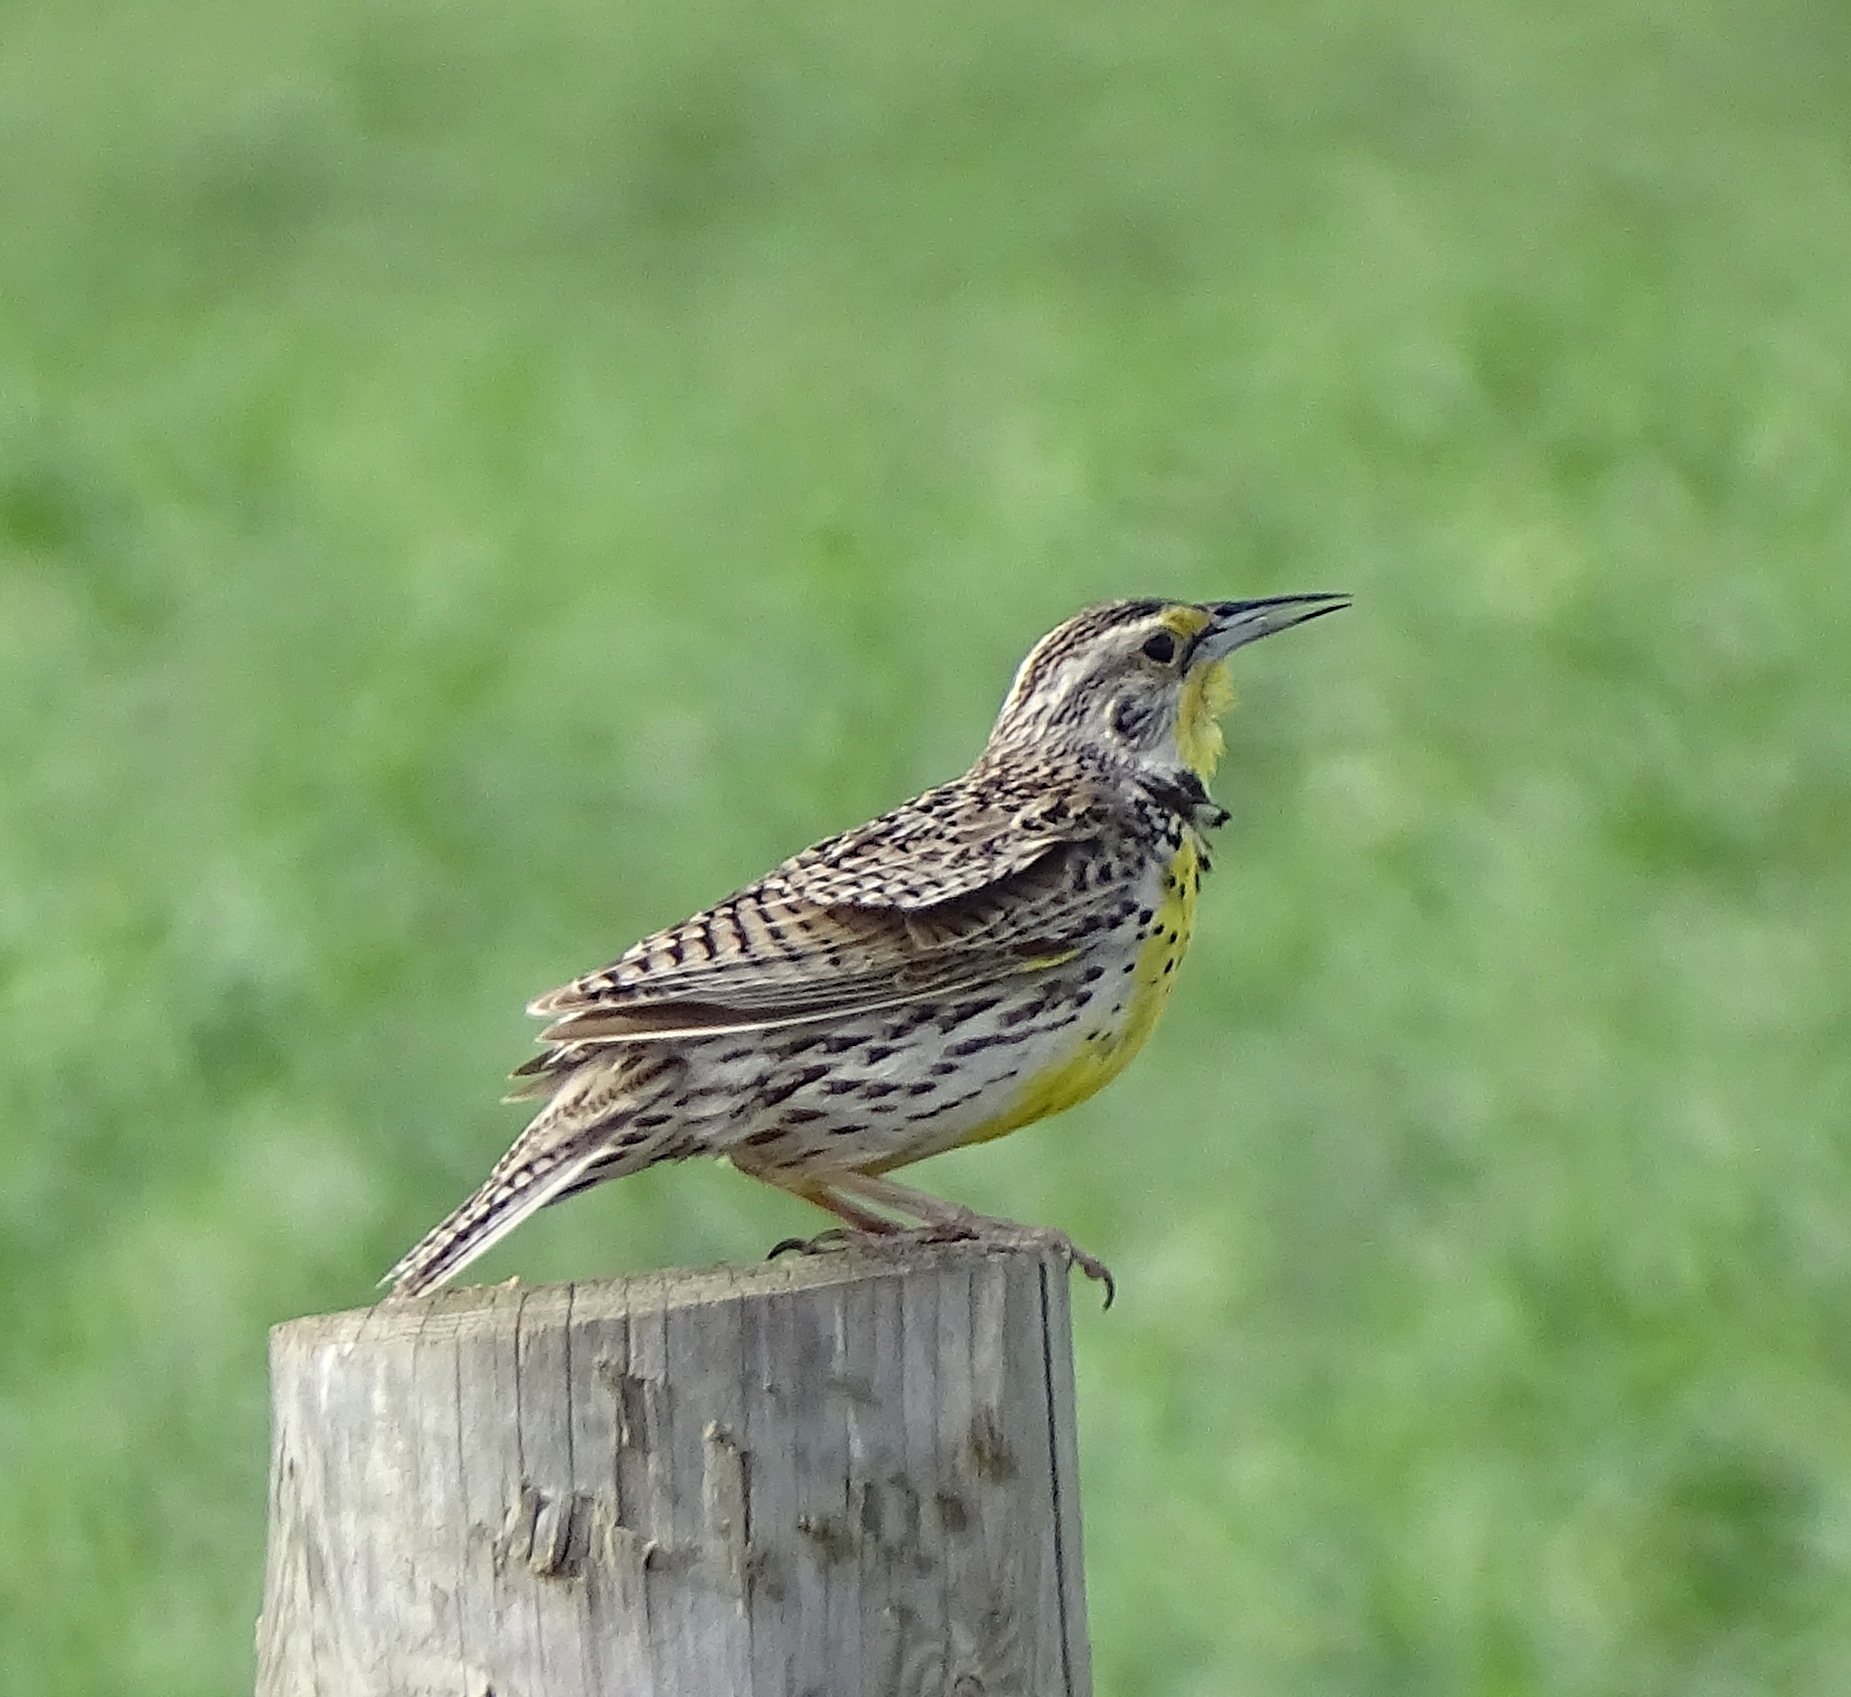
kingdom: Animalia
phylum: Chordata
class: Aves
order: Passeriformes
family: Icteridae
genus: Sturnella
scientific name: Sturnella neglecta
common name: Western meadowlark
